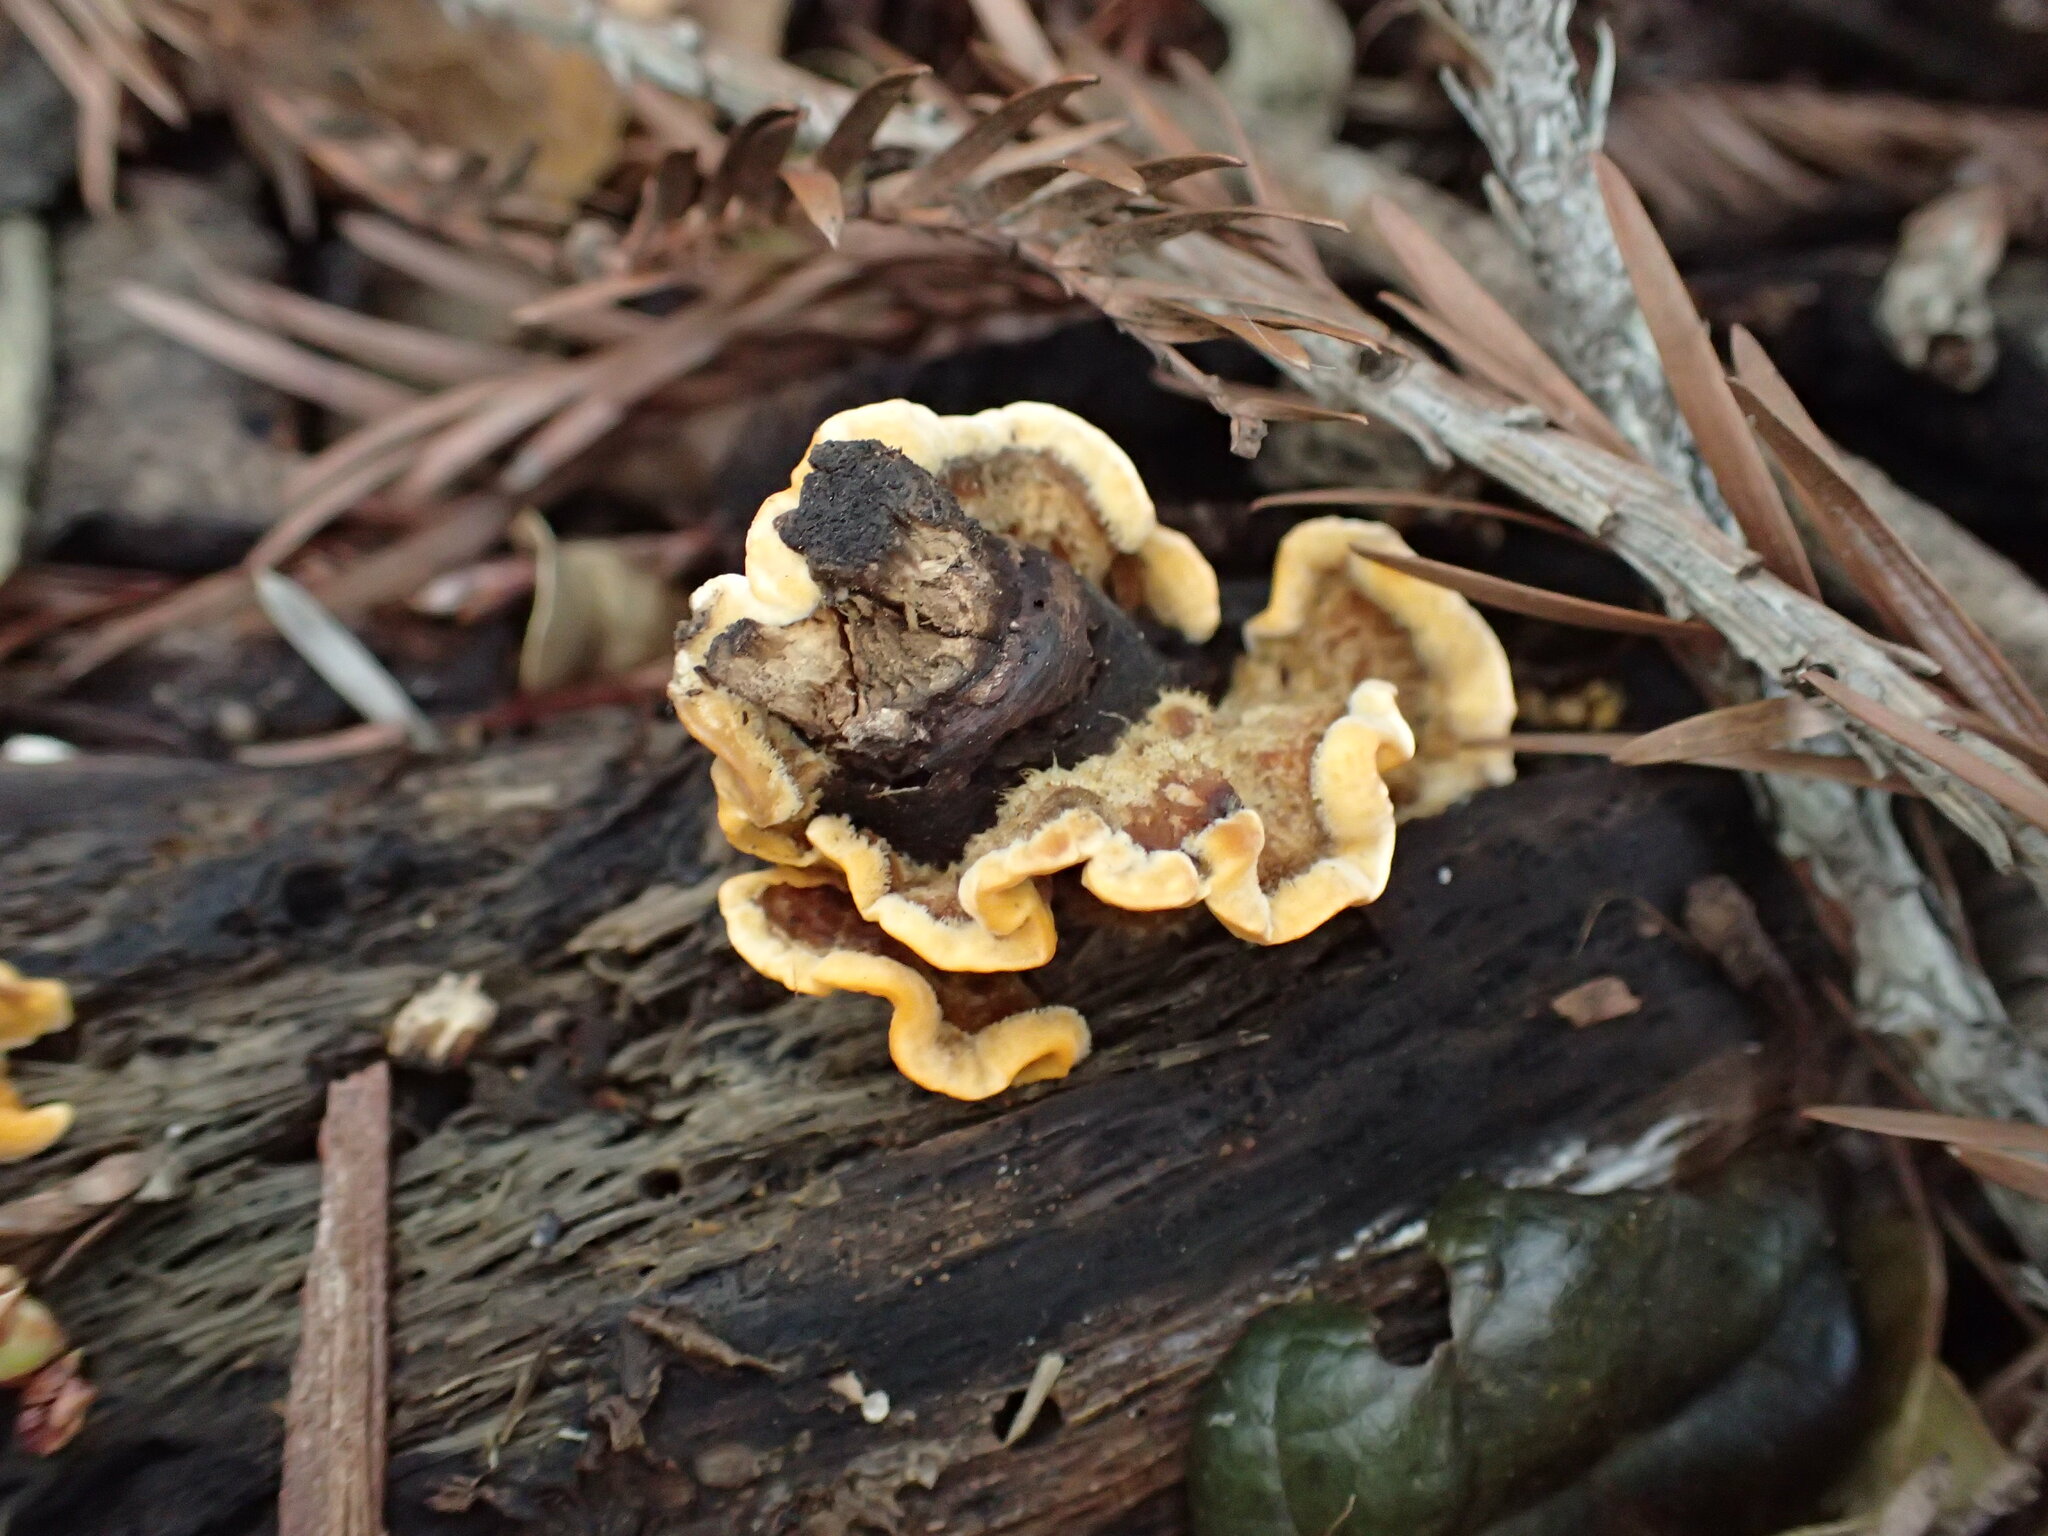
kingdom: Fungi
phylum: Basidiomycota
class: Agaricomycetes
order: Russulales
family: Stereaceae
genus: Stereum
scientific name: Stereum hirsutum
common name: Hairy curtain crust
